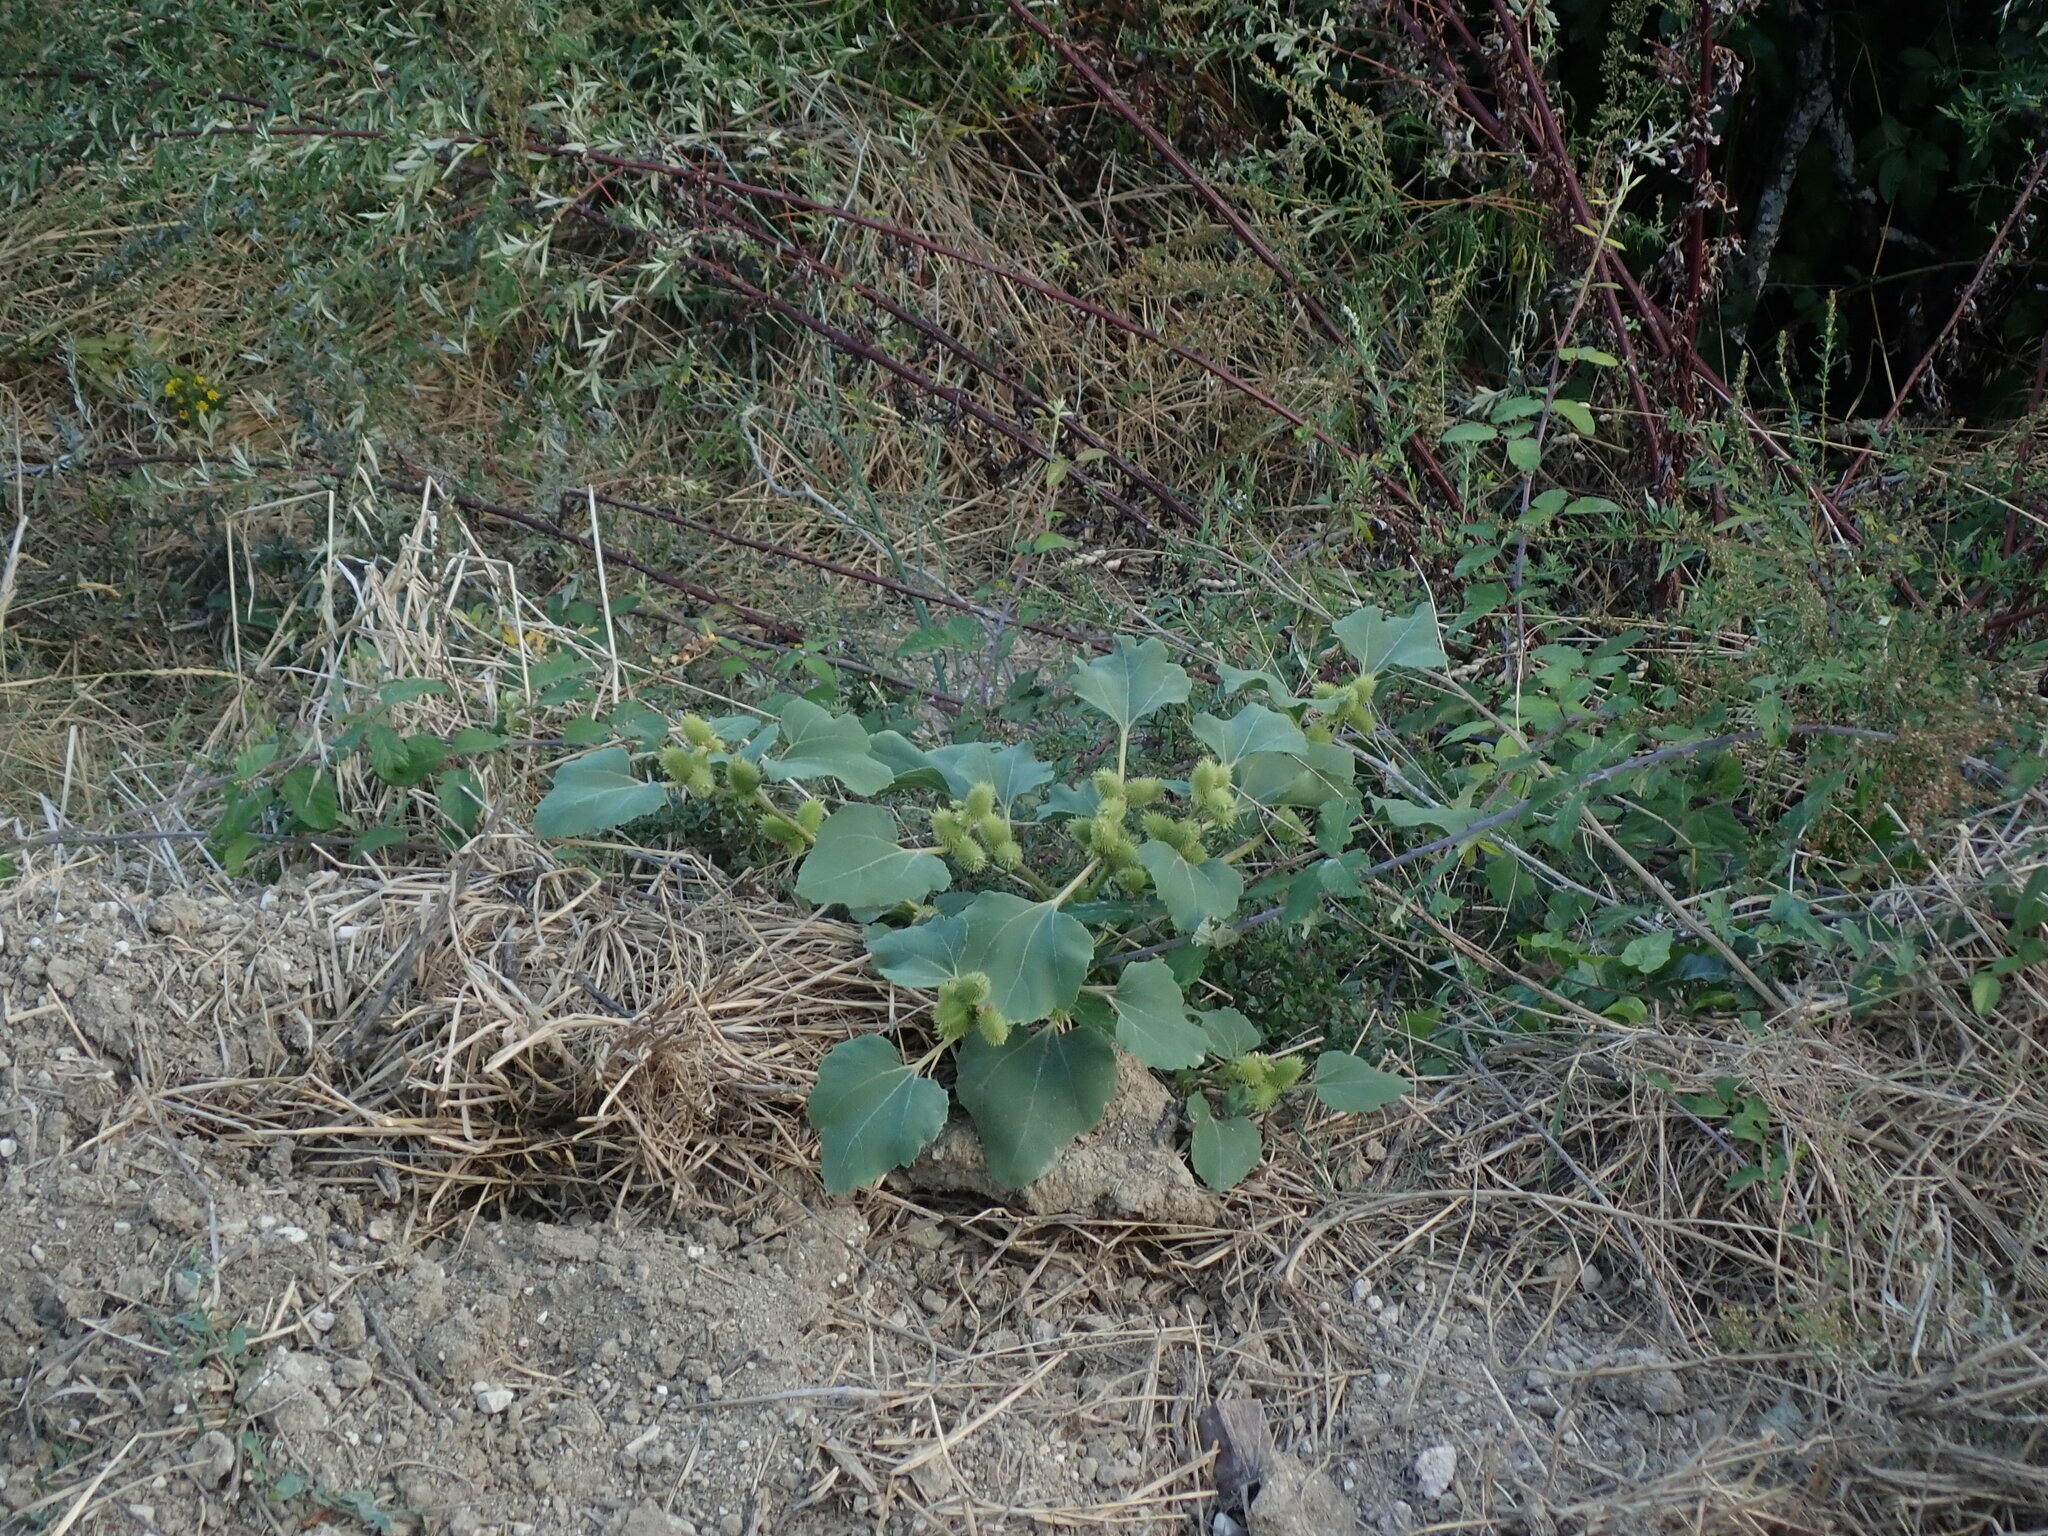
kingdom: Plantae
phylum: Tracheophyta
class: Magnoliopsida
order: Asterales
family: Asteraceae
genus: Xanthium
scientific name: Xanthium orientale
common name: Californian burr
